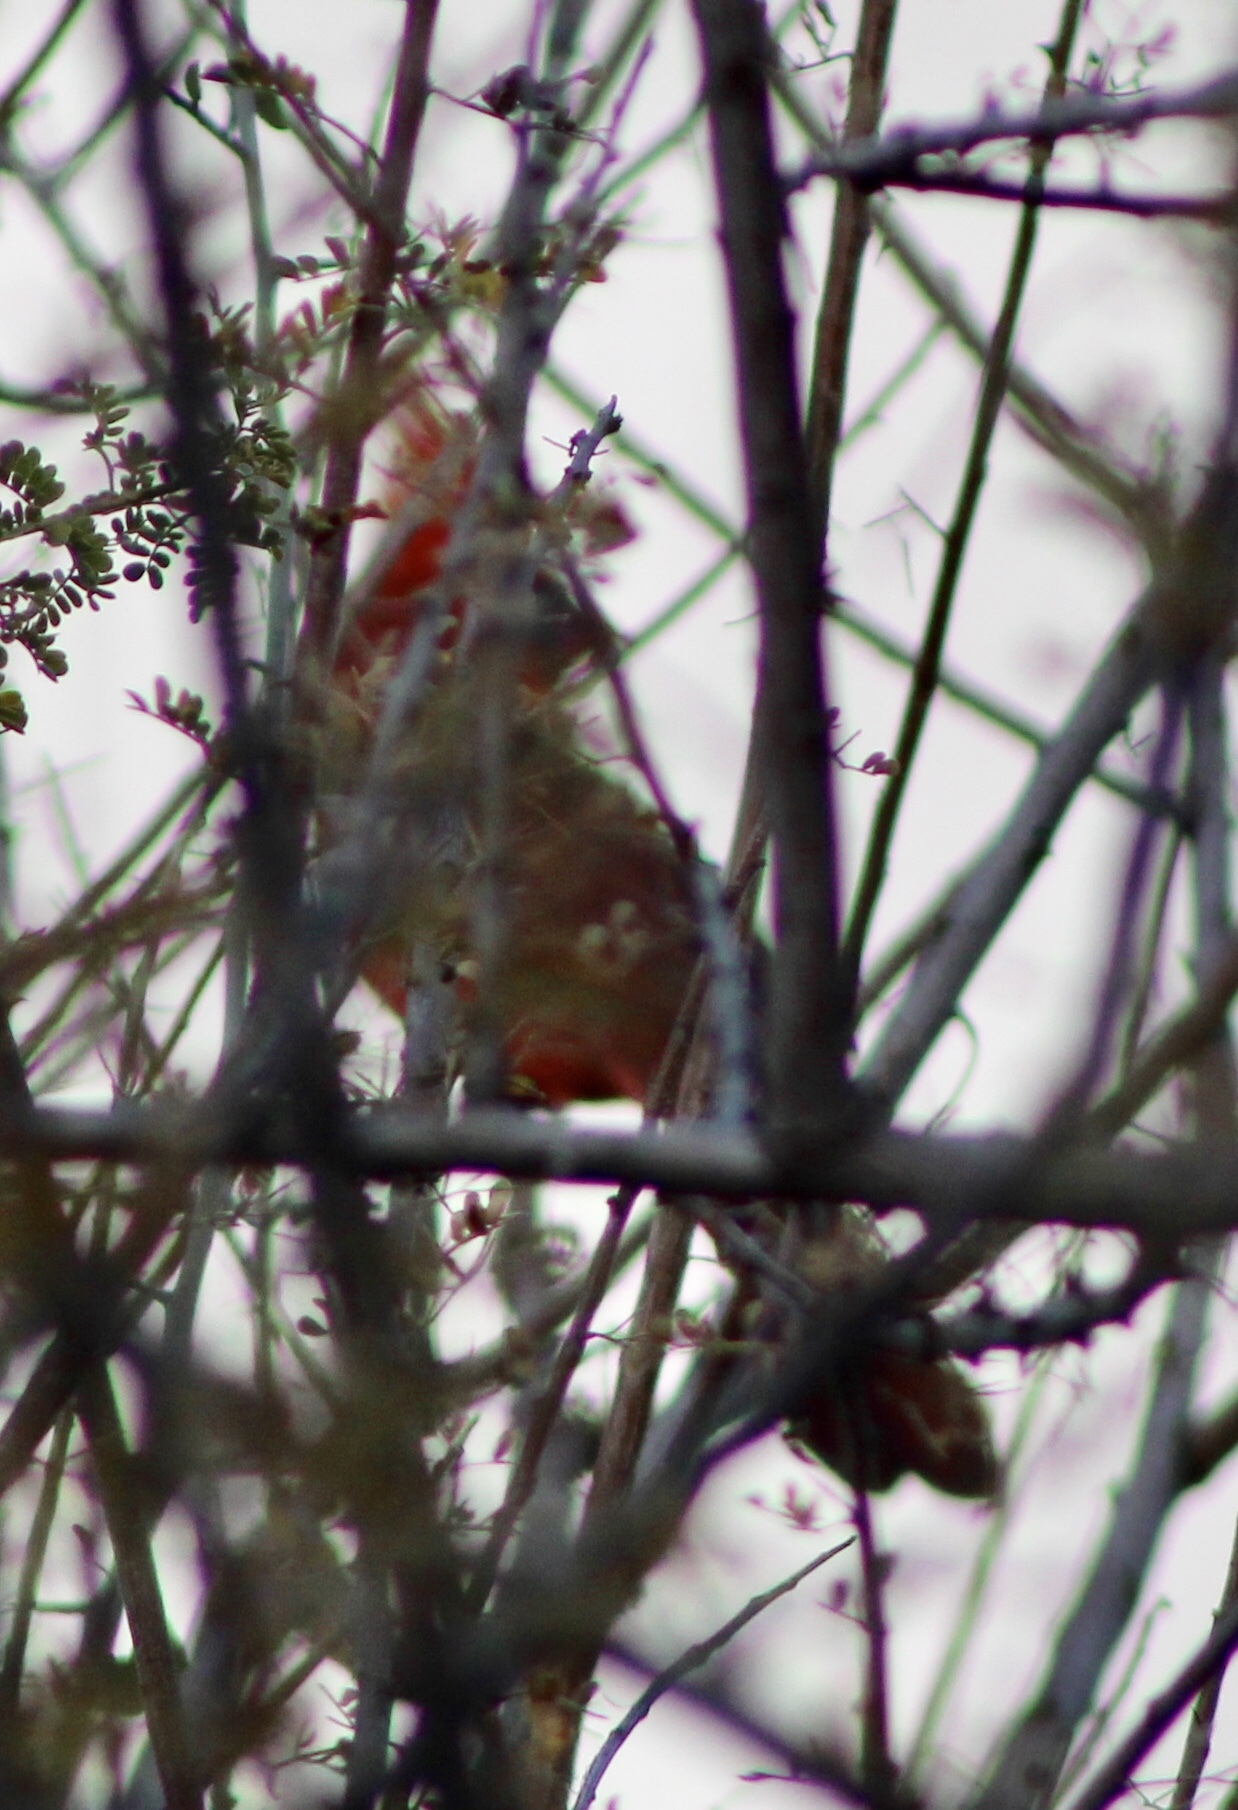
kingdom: Animalia
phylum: Chordata
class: Aves
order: Passeriformes
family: Cardinalidae
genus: Cardinalis
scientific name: Cardinalis cardinalis
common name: Northern cardinal
